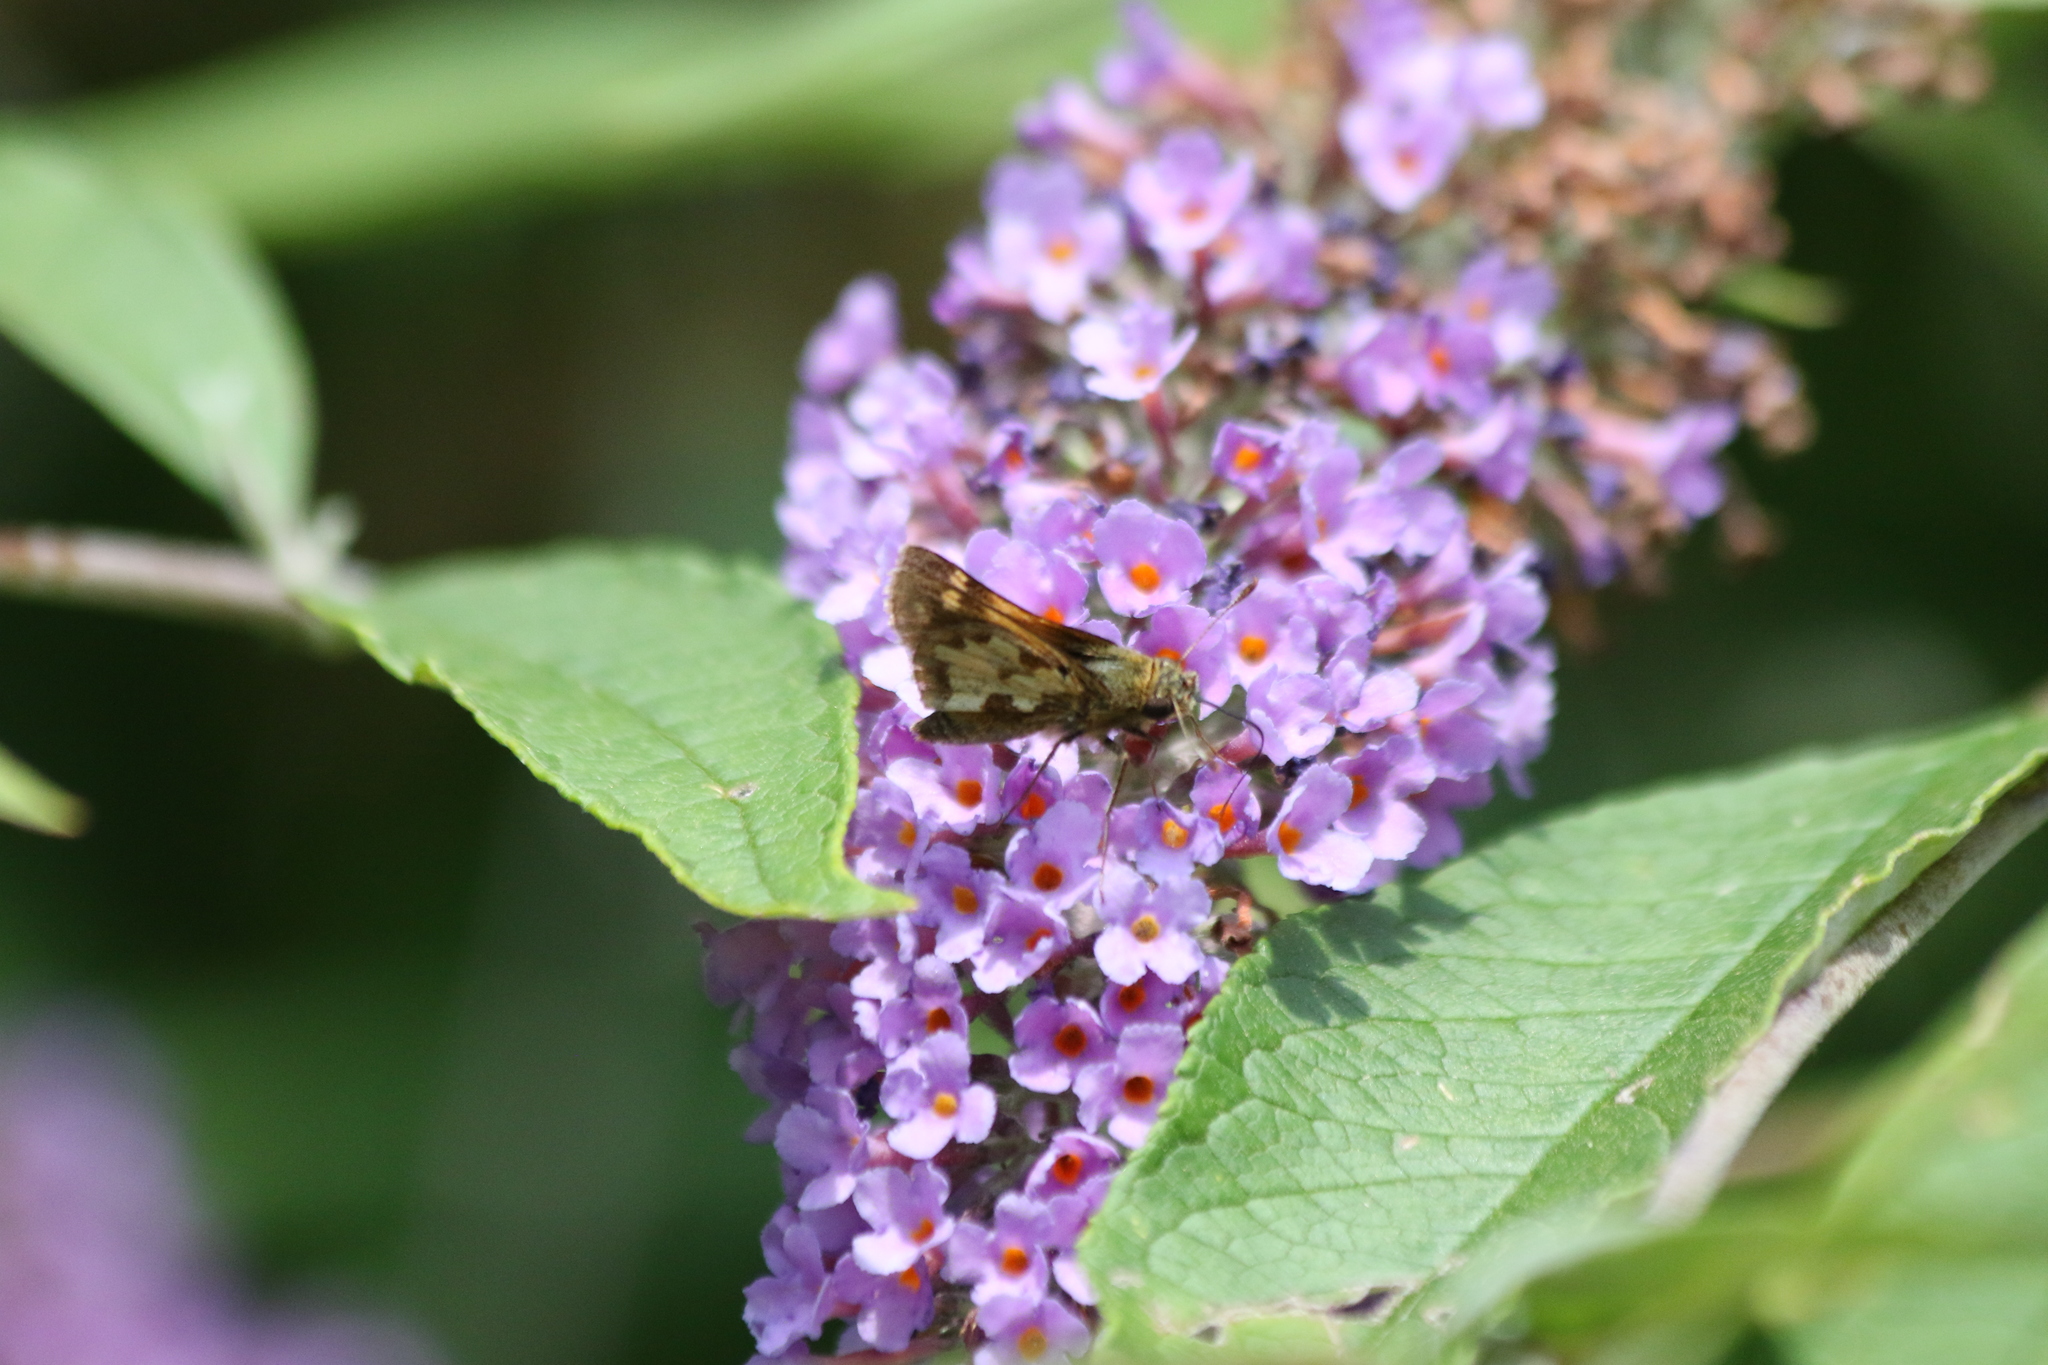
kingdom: Animalia
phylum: Arthropoda
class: Insecta
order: Lepidoptera
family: Hesperiidae
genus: Polites
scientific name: Polites coras
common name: Peck's skipper
